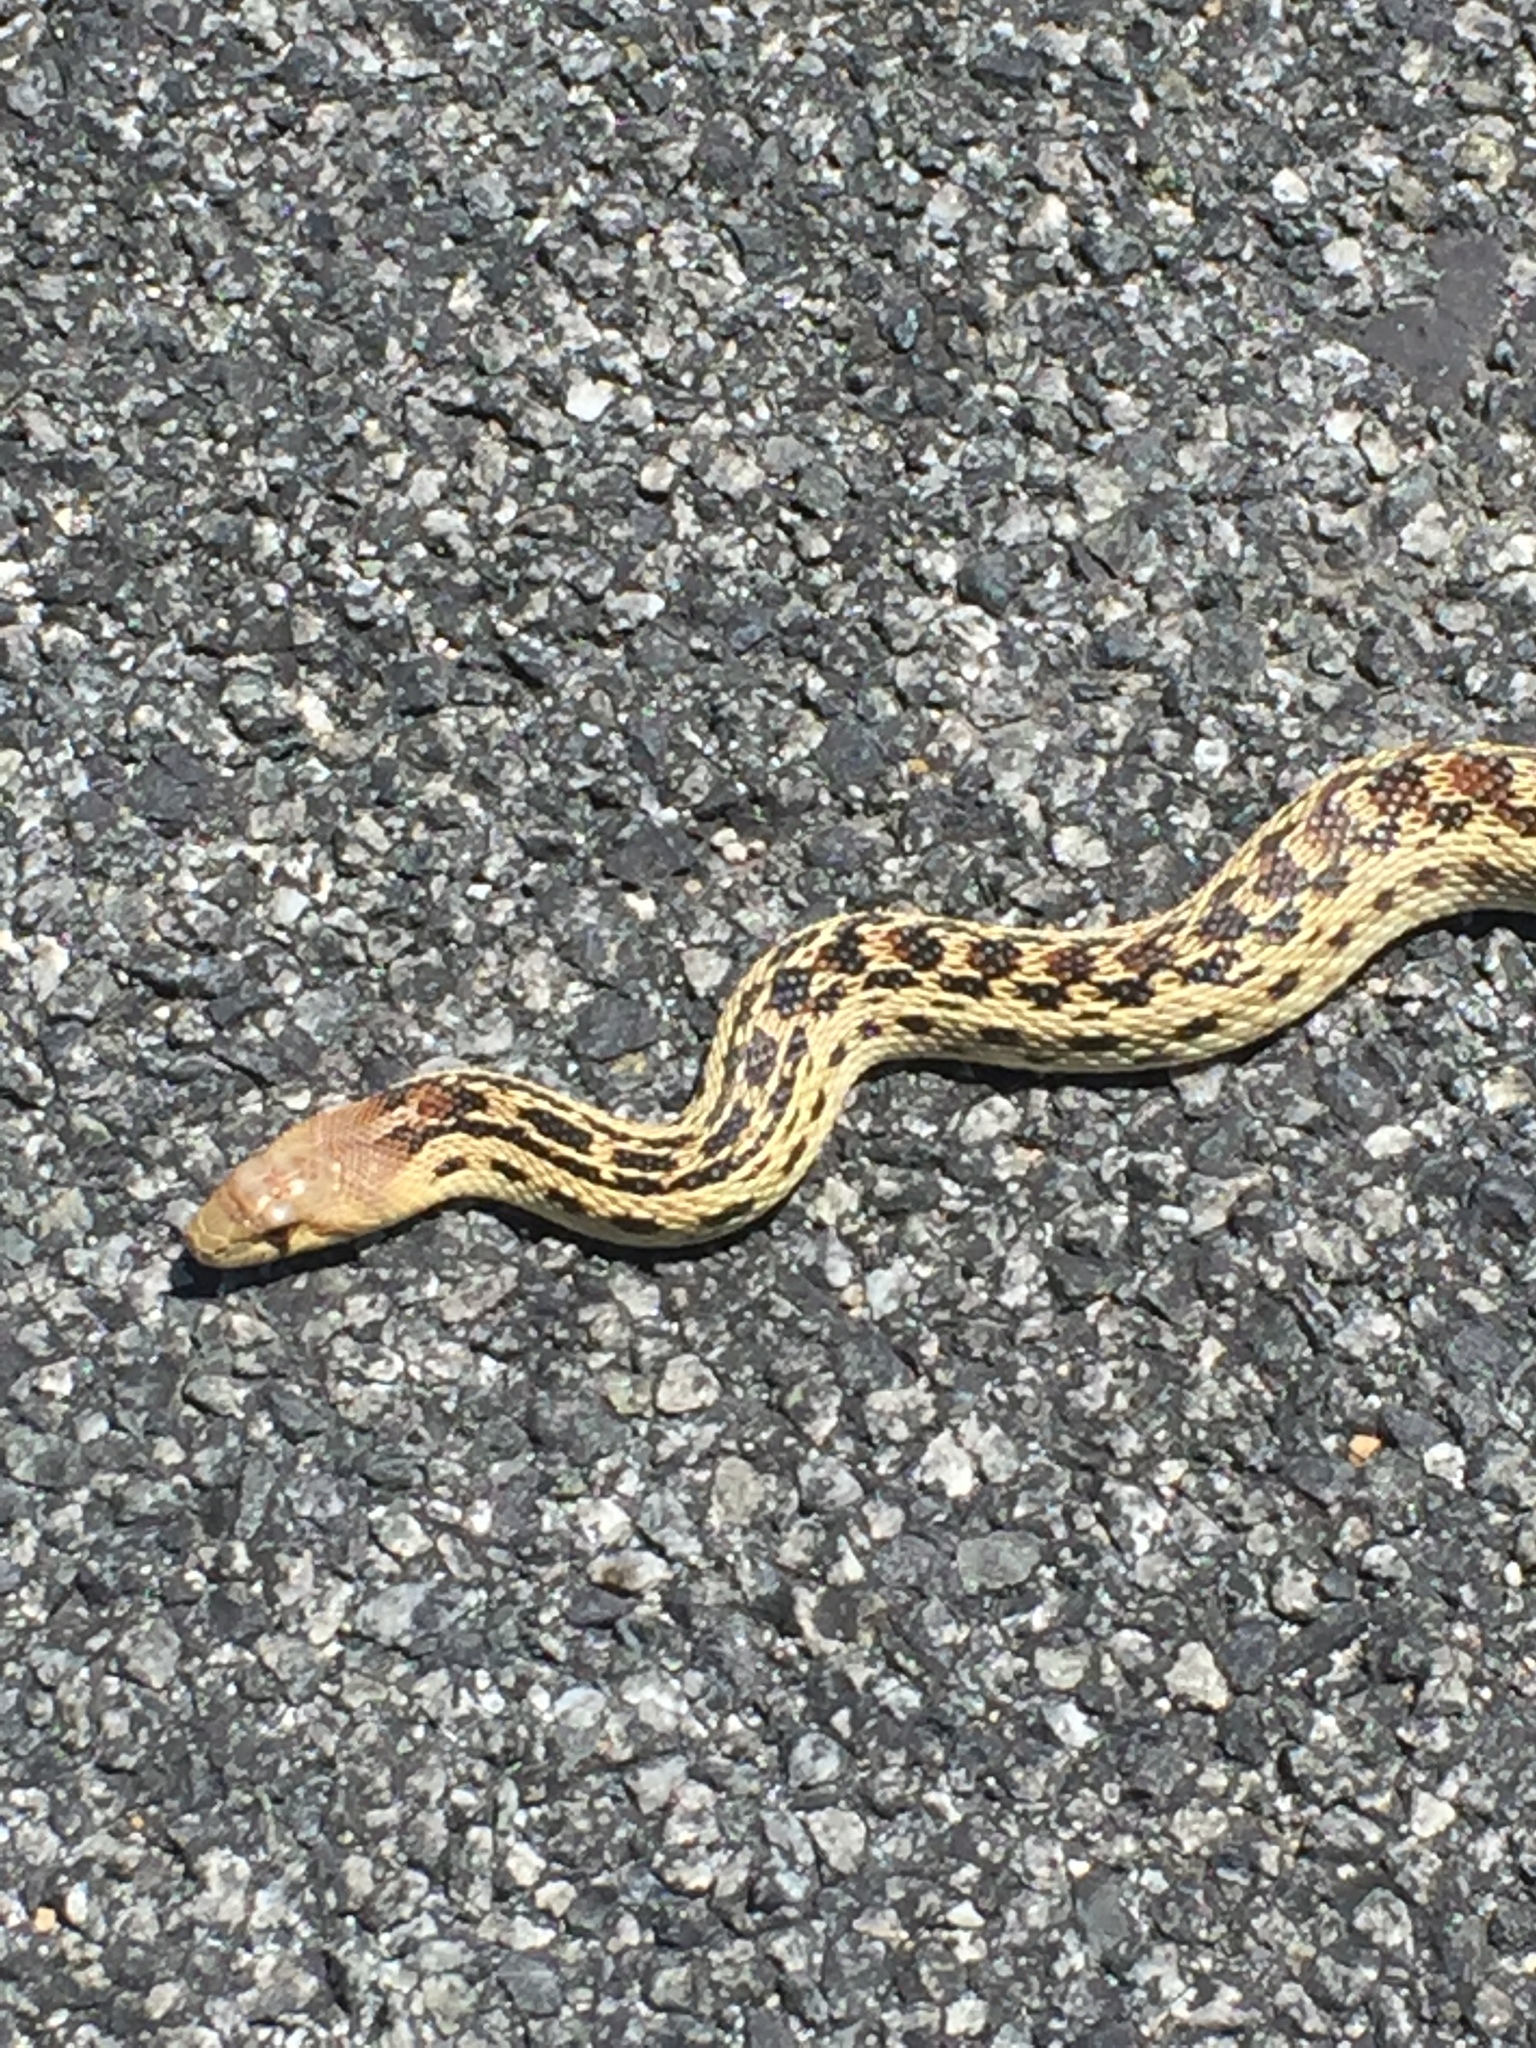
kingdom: Animalia
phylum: Chordata
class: Squamata
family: Colubridae
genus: Pituophis
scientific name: Pituophis catenifer
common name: Gopher snake
